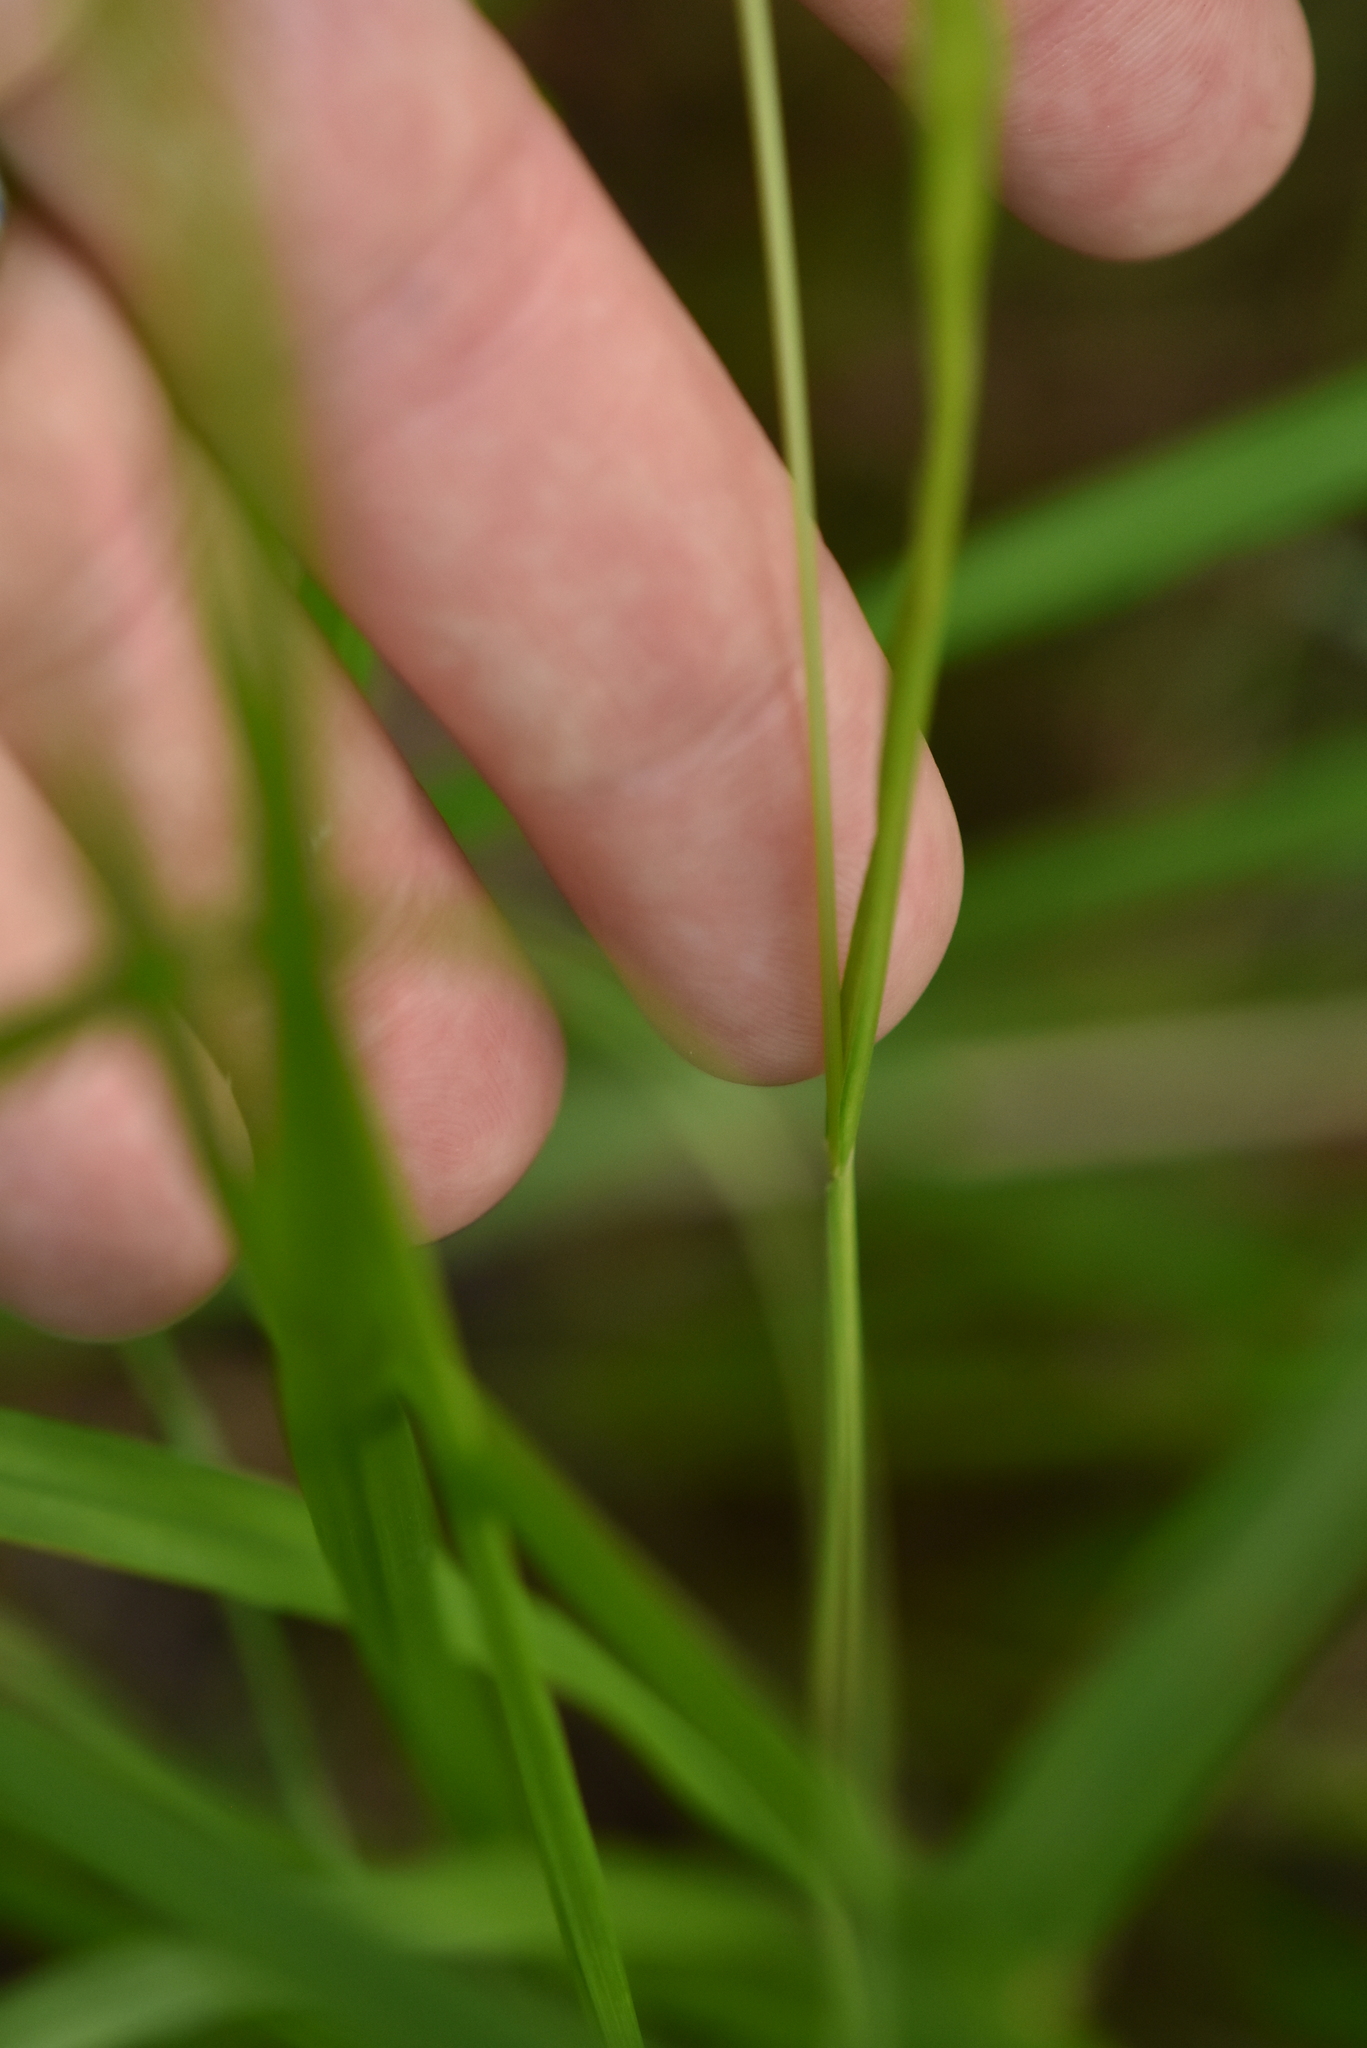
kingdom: Plantae
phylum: Tracheophyta
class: Liliopsida
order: Poales
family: Poaceae
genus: Melica
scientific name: Melica nutans
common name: Mountain melick
